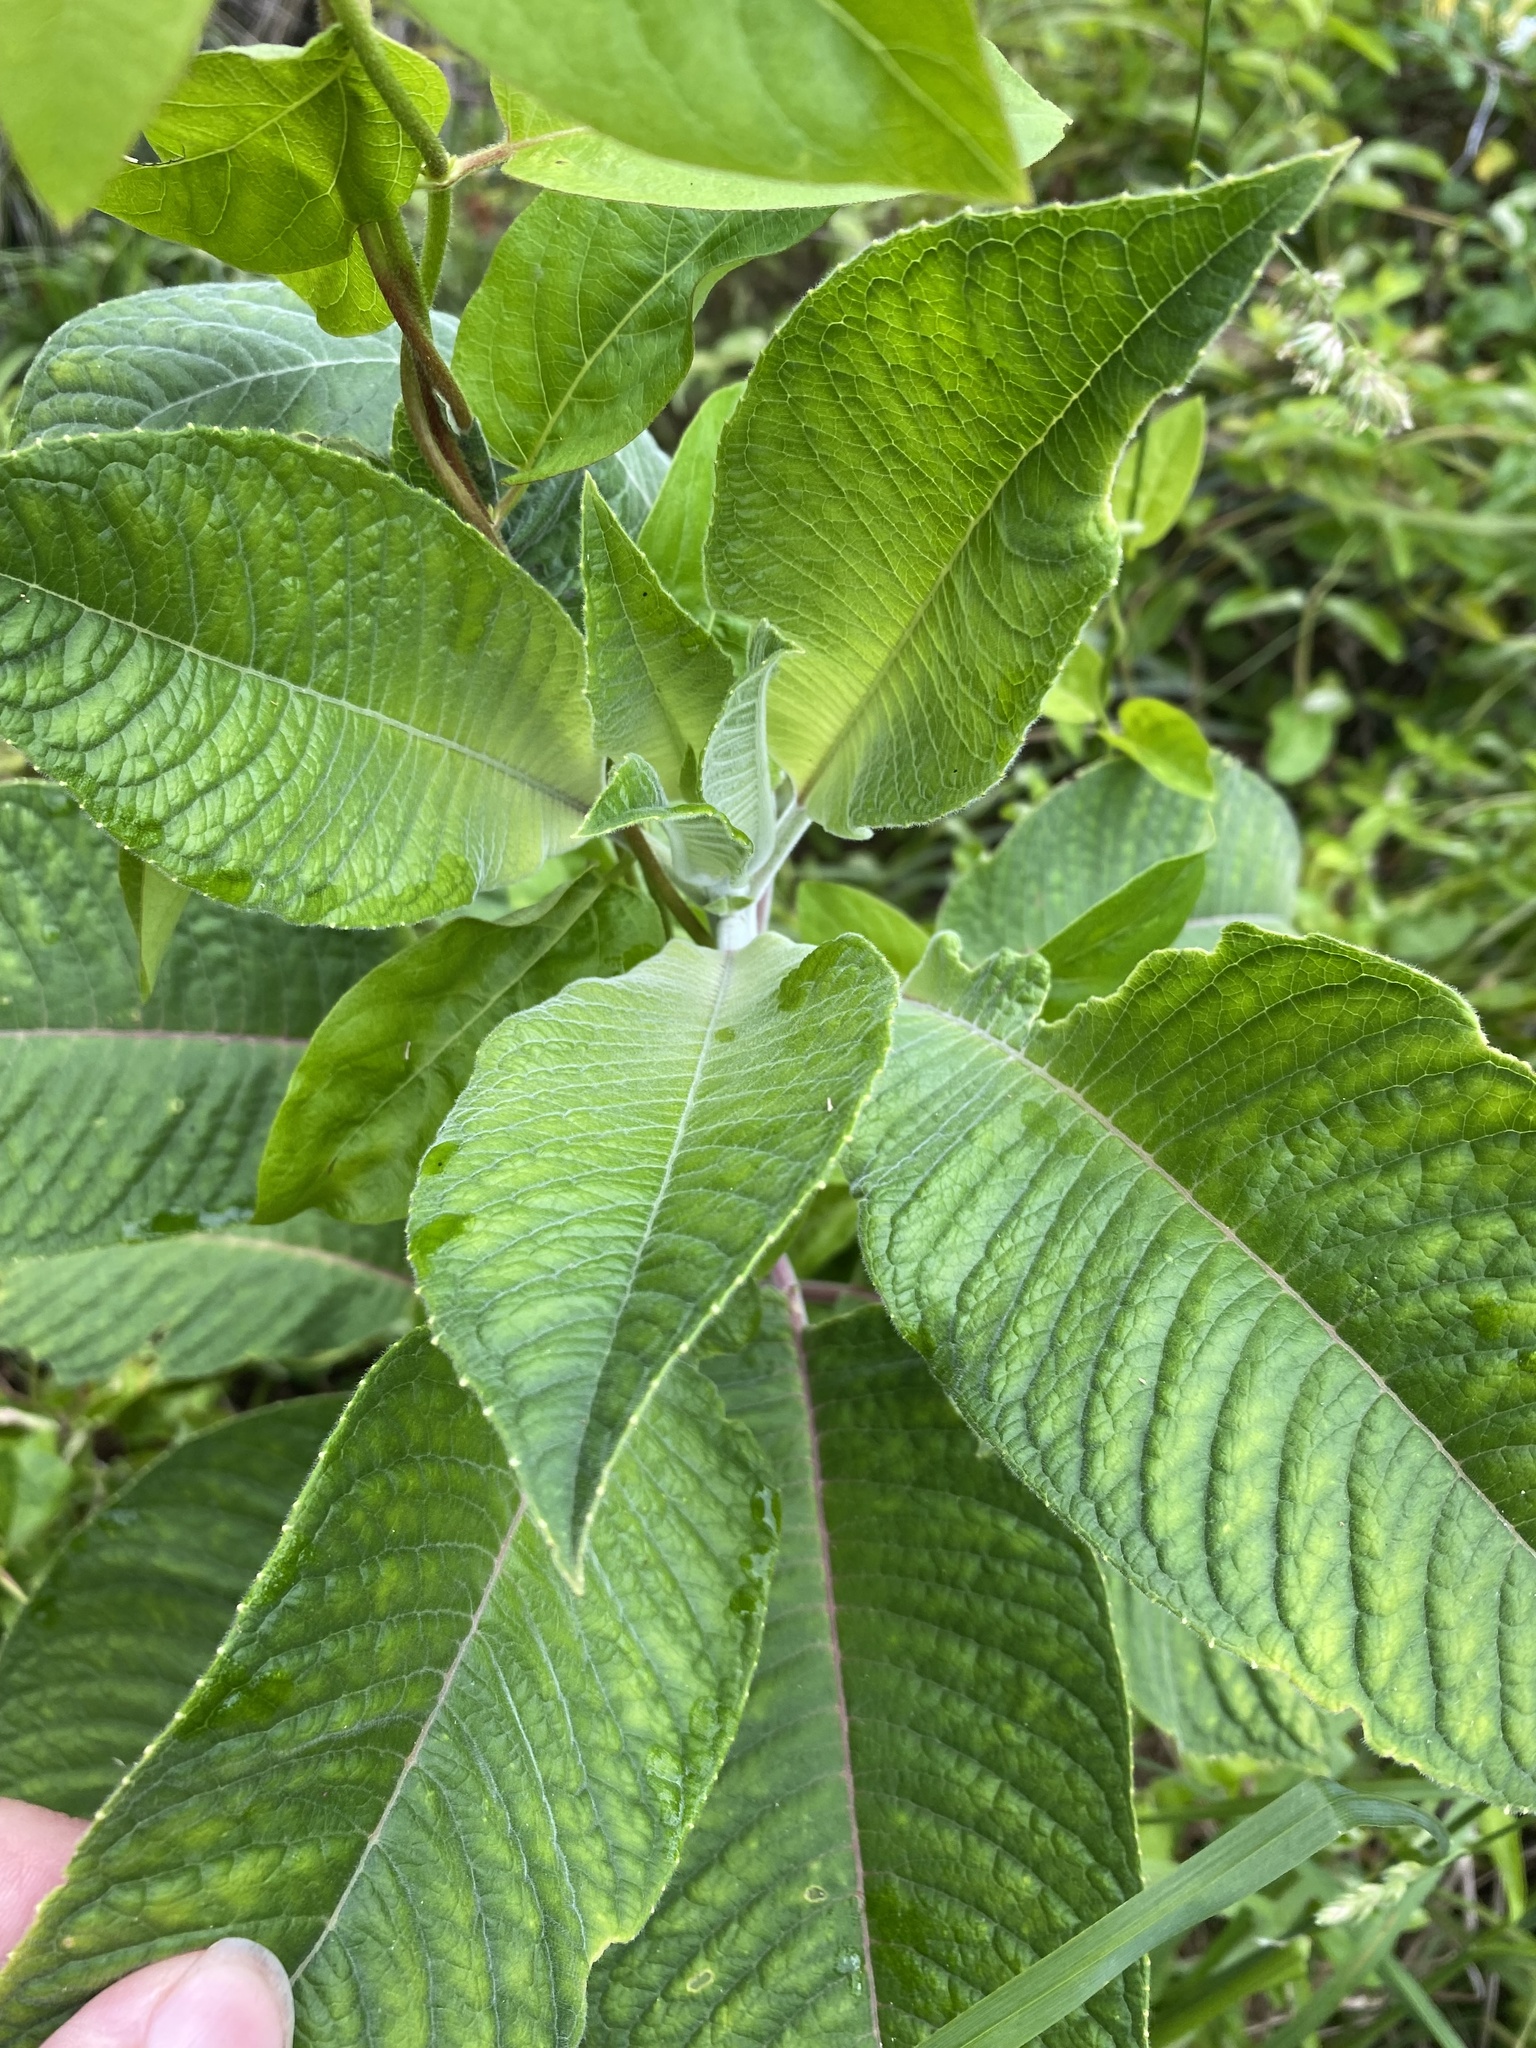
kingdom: Plantae
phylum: Tracheophyta
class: Magnoliopsida
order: Myrtales
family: Onagraceae
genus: Fuchsia
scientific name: Fuchsia boliviana
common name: Bolivian fuchsia
